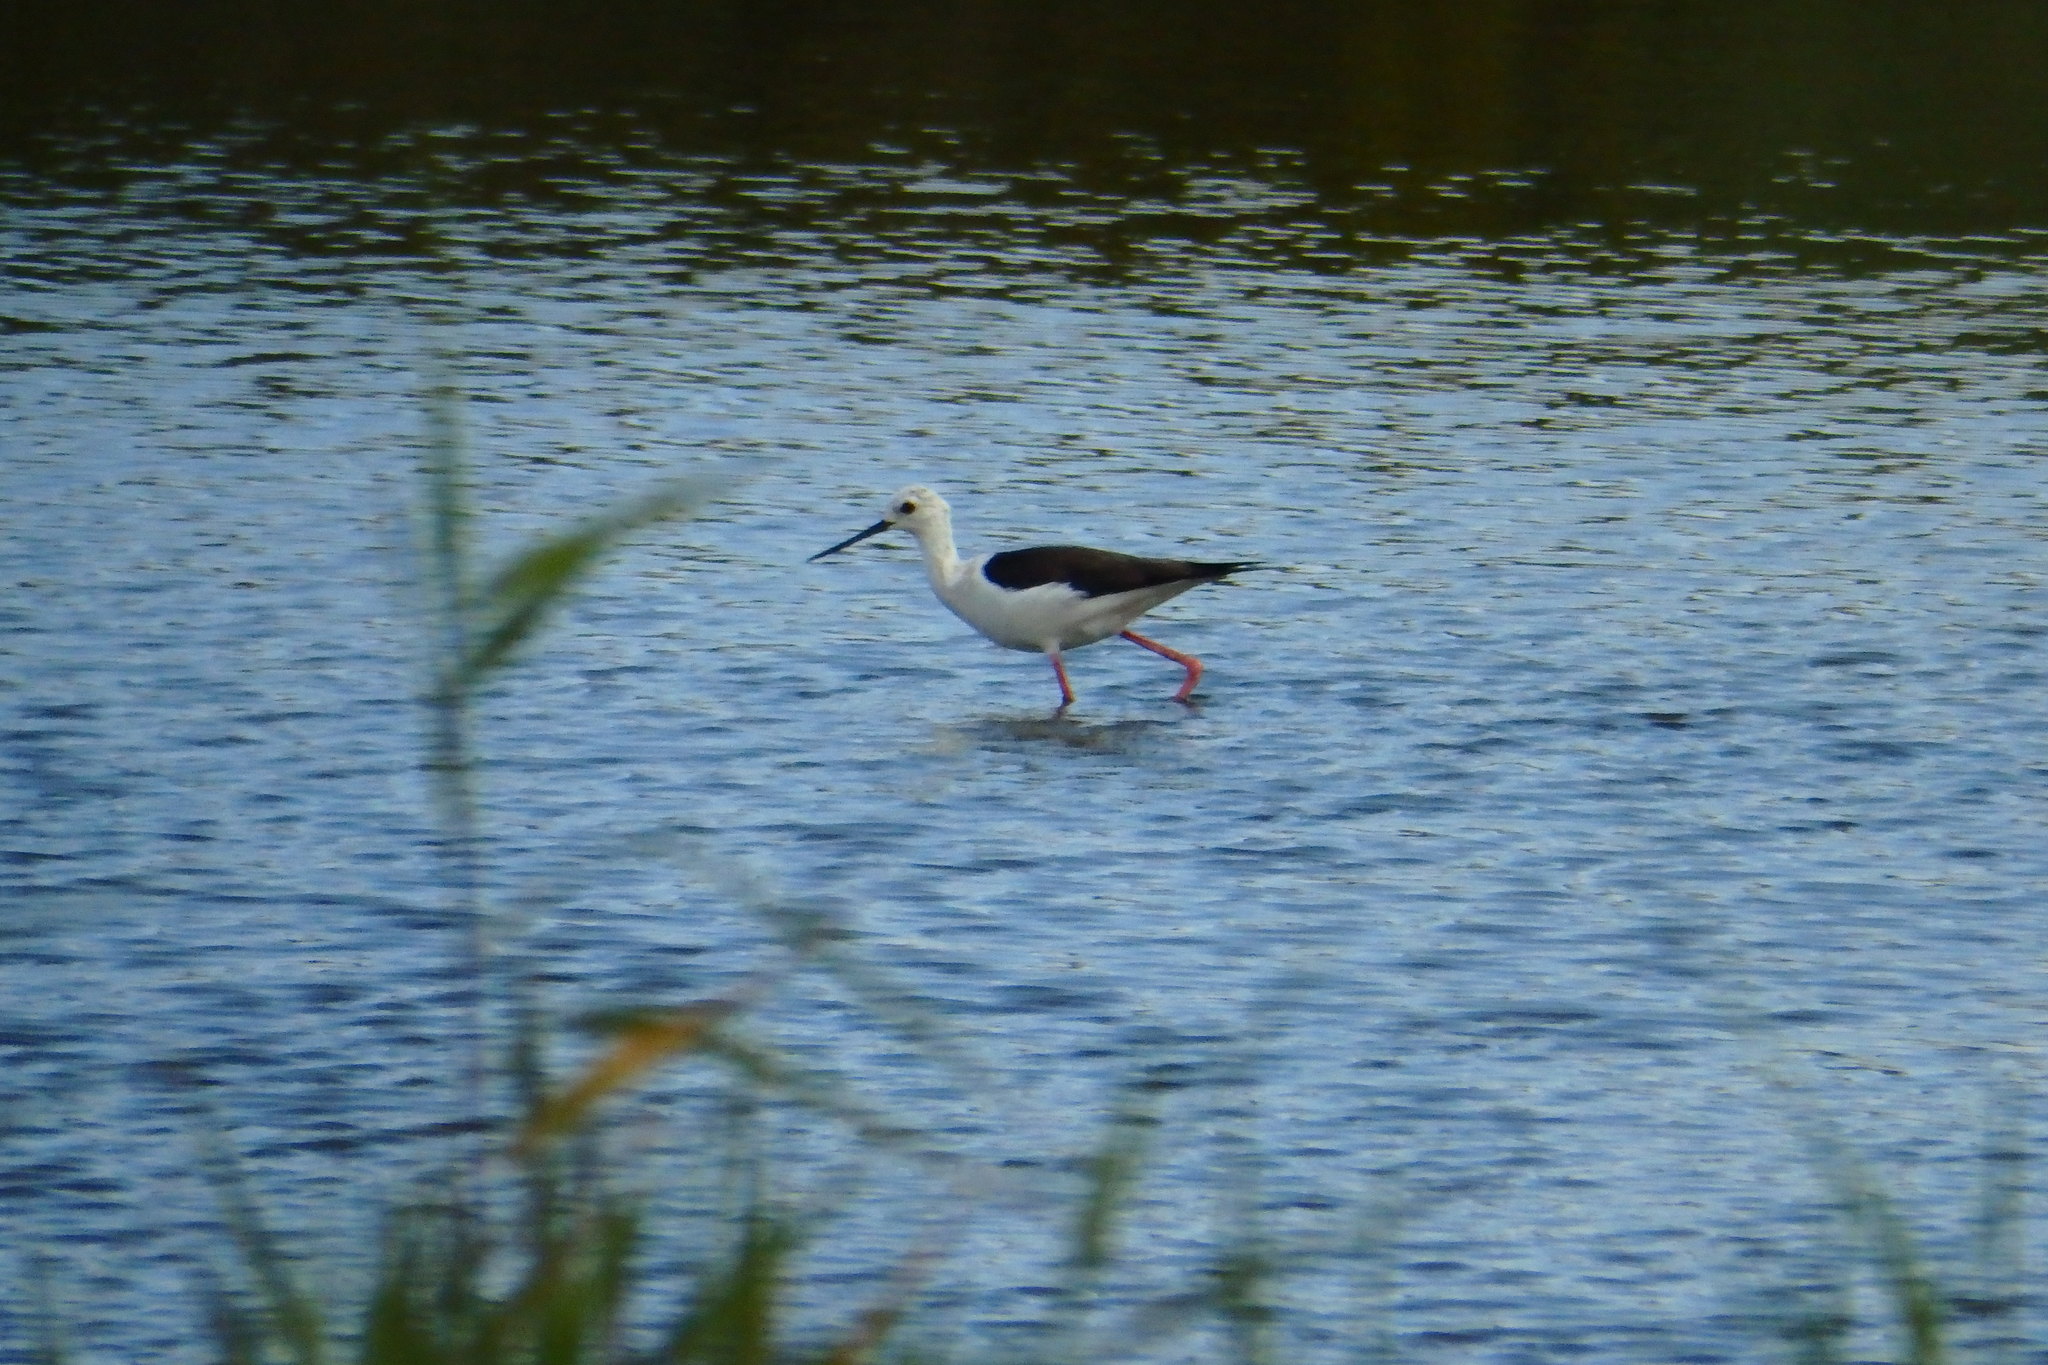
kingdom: Animalia
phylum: Chordata
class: Aves
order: Charadriiformes
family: Recurvirostridae
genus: Himantopus
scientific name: Himantopus himantopus
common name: Black-winged stilt
